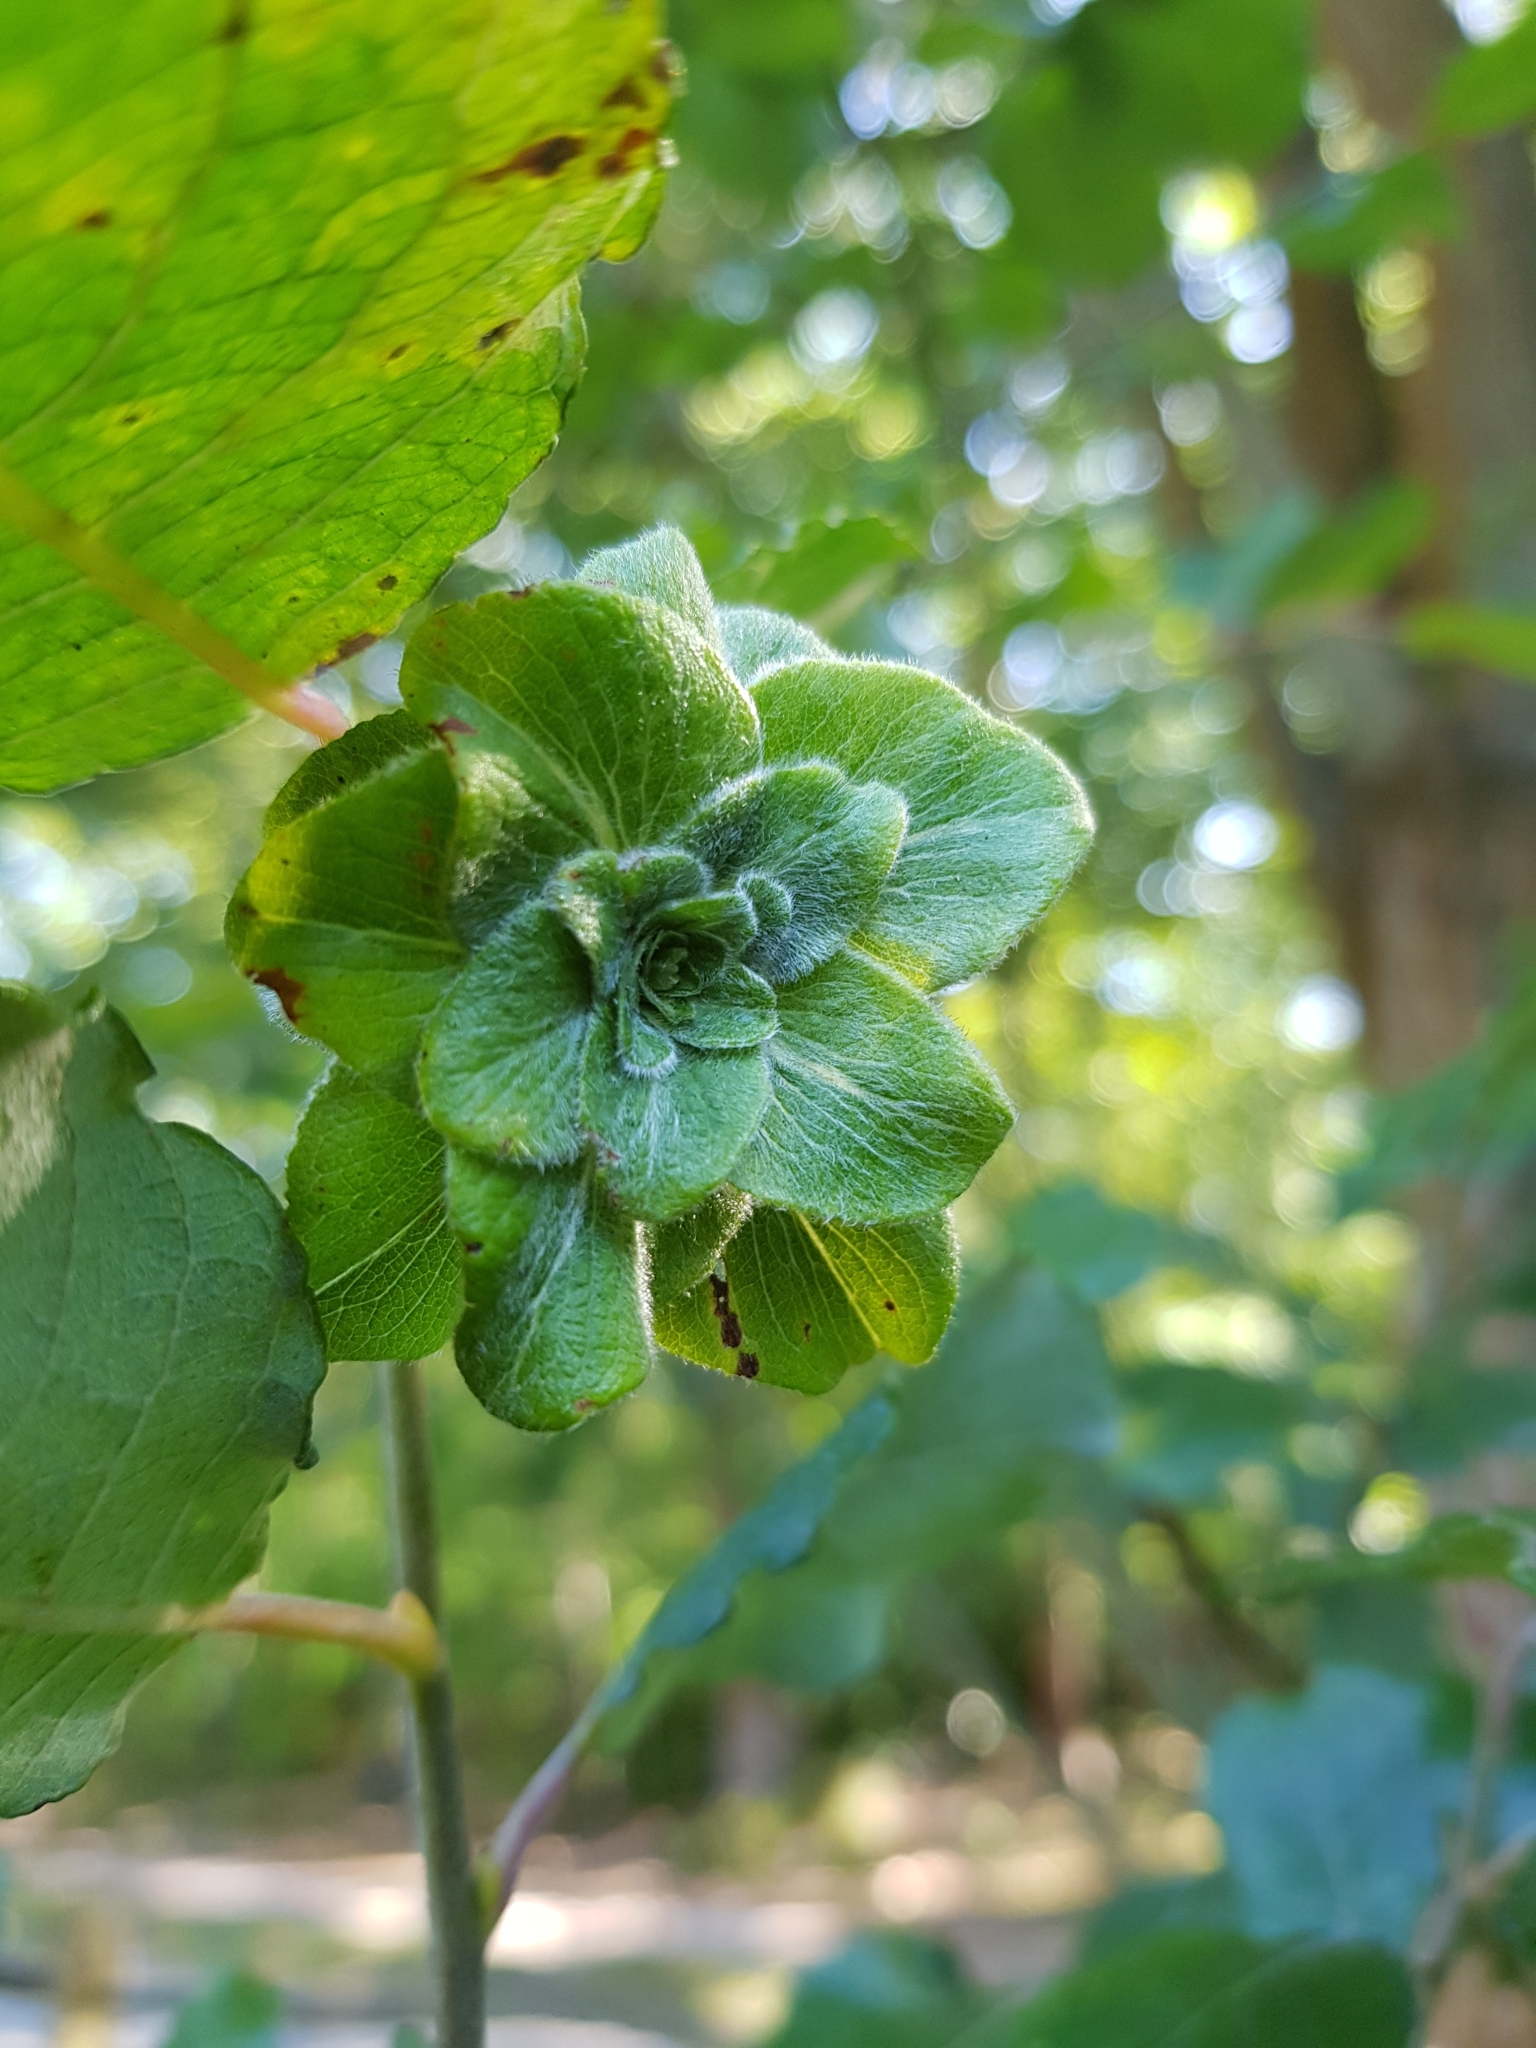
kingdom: Animalia
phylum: Arthropoda
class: Insecta
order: Diptera
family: Cecidomyiidae
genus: Rabdophaga
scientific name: Rabdophaga rosaria
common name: Willow rose gall midge
